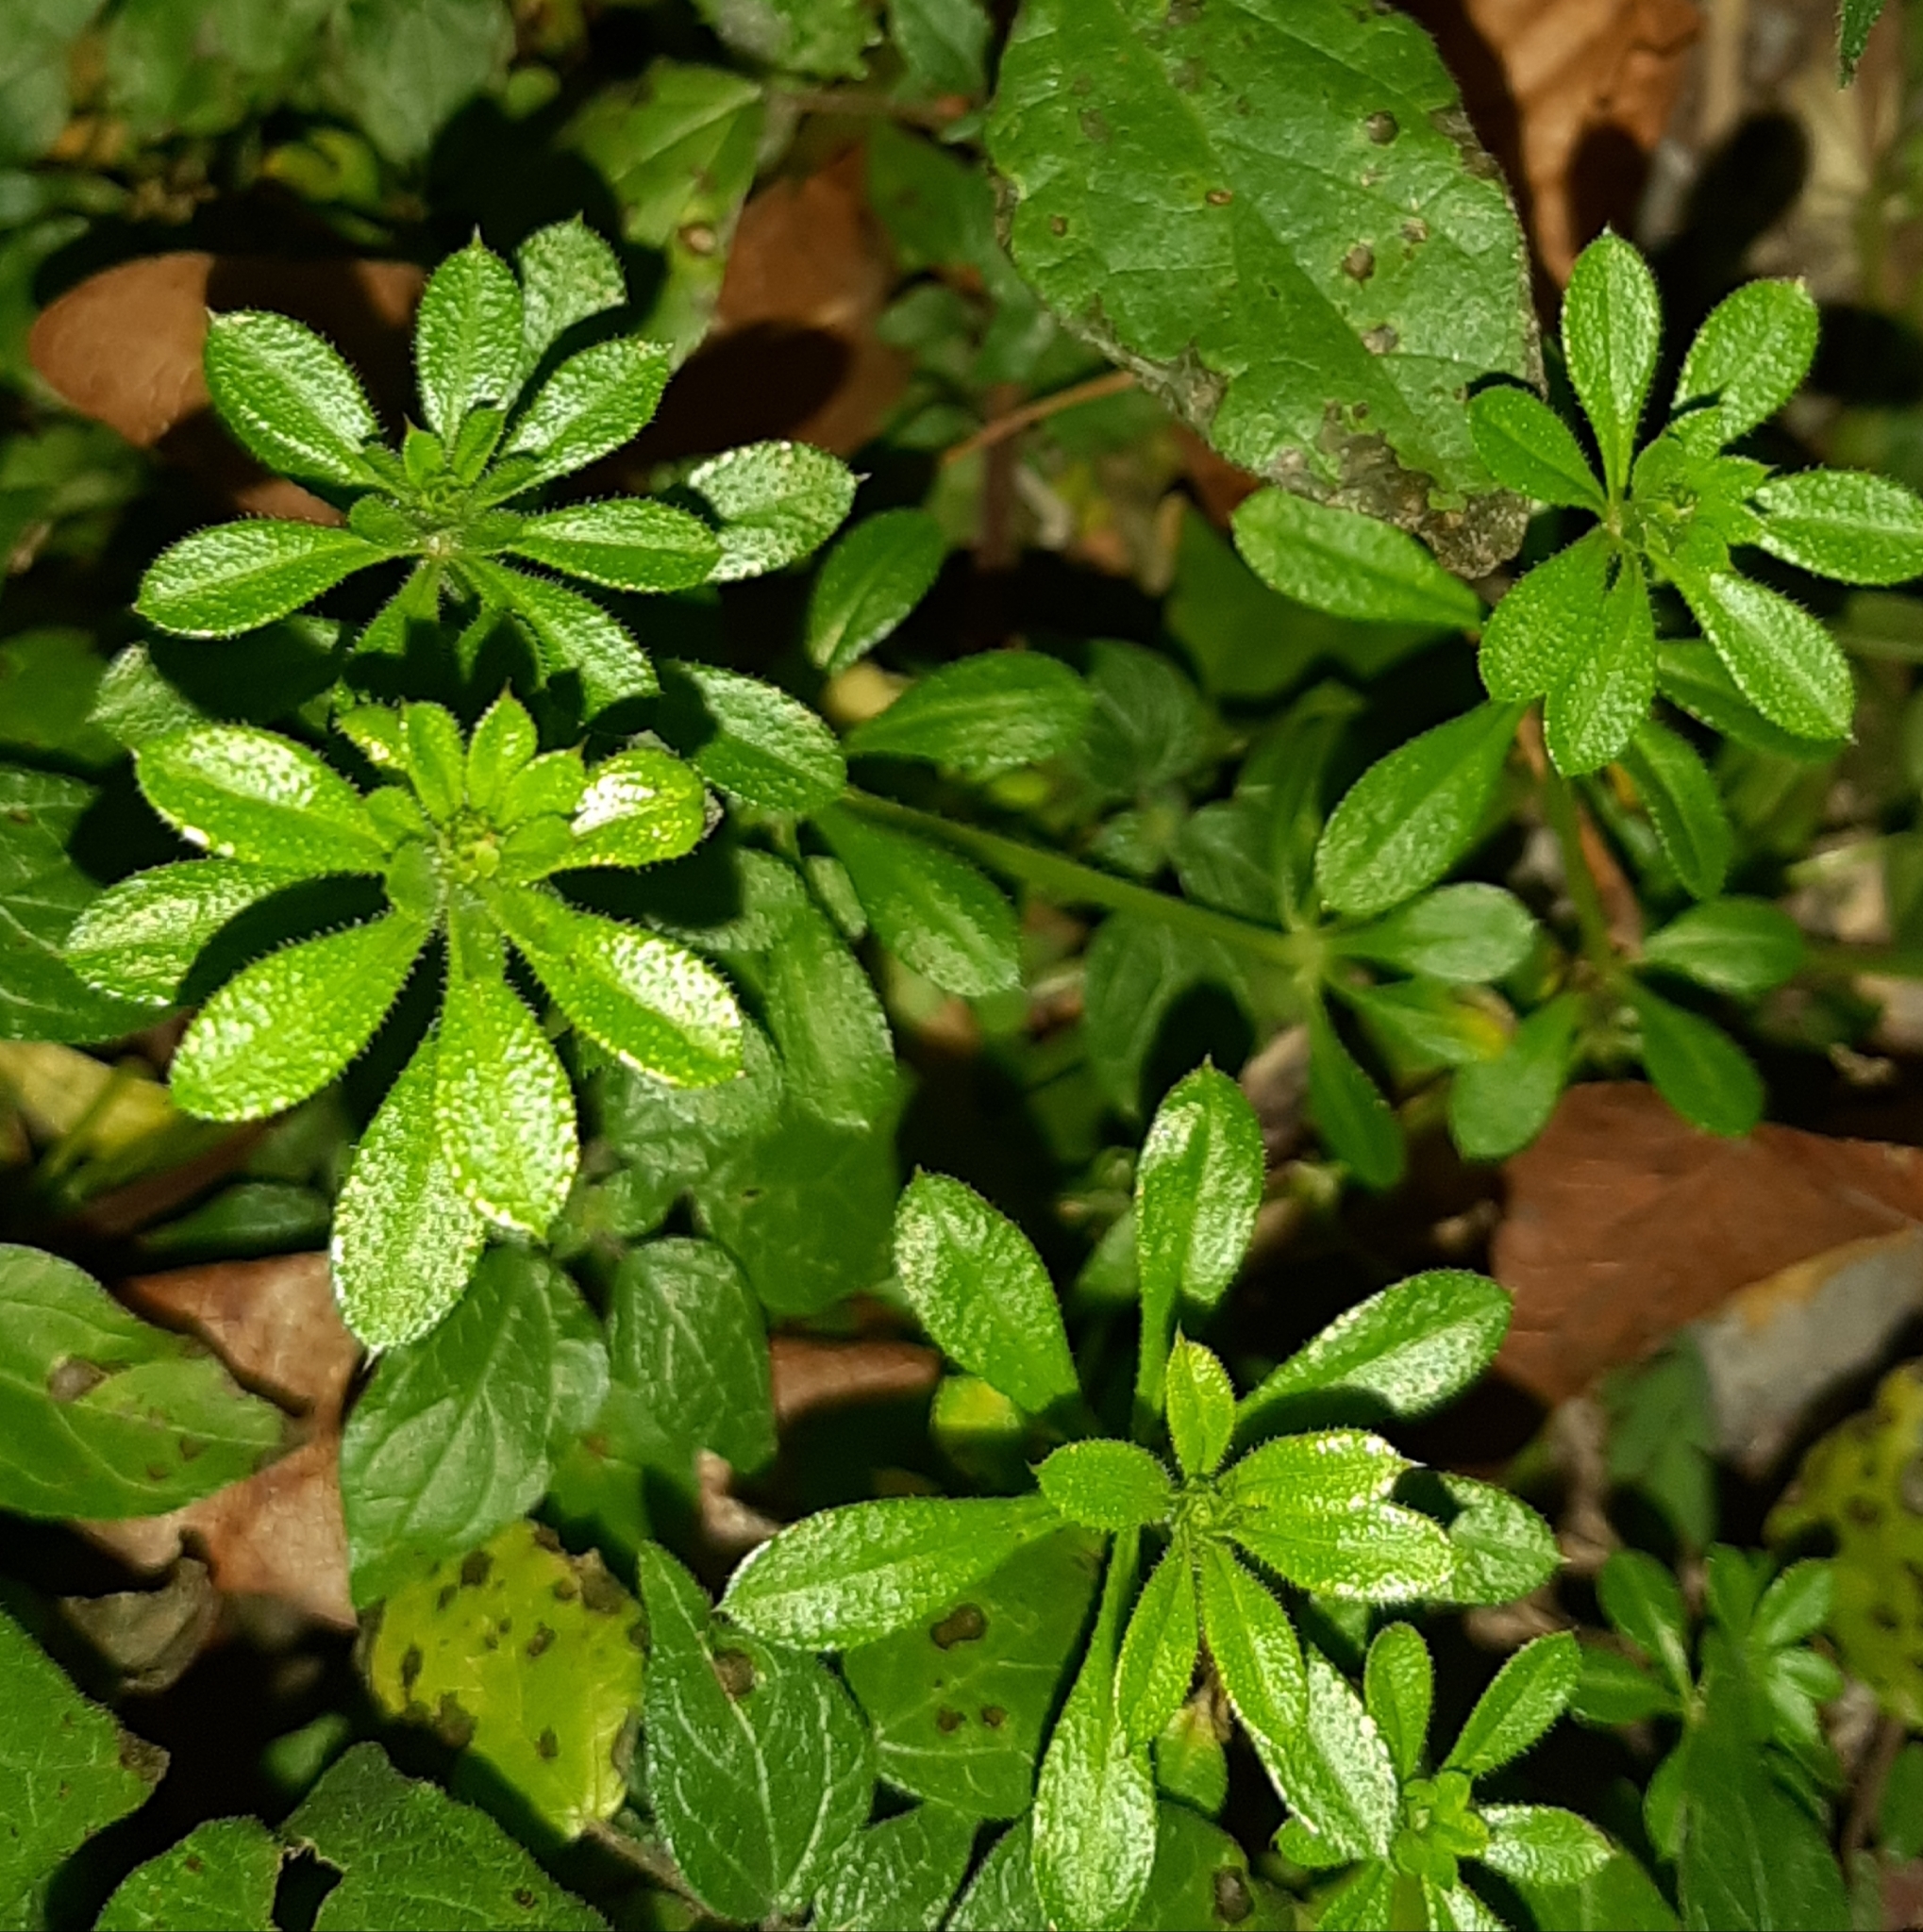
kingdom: Plantae
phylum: Tracheophyta
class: Magnoliopsida
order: Gentianales
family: Rubiaceae
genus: Galium
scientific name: Galium aparine
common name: Cleavers
